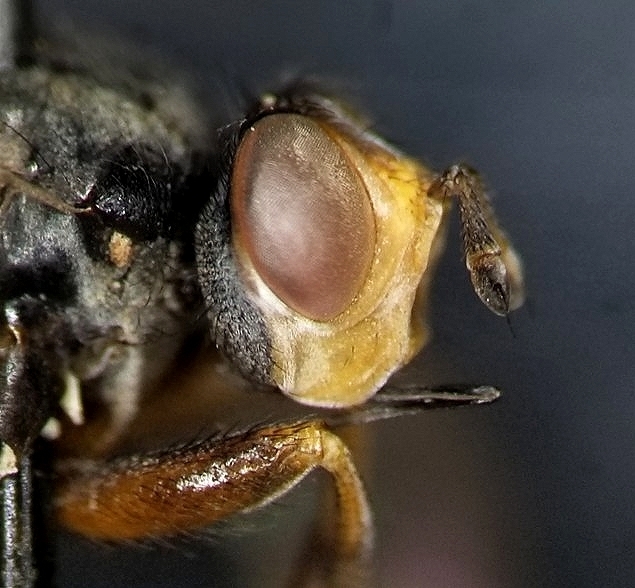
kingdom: Animalia
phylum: Arthropoda
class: Insecta
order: Diptera
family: Conopidae
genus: Thecophora
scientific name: Thecophora modesta
